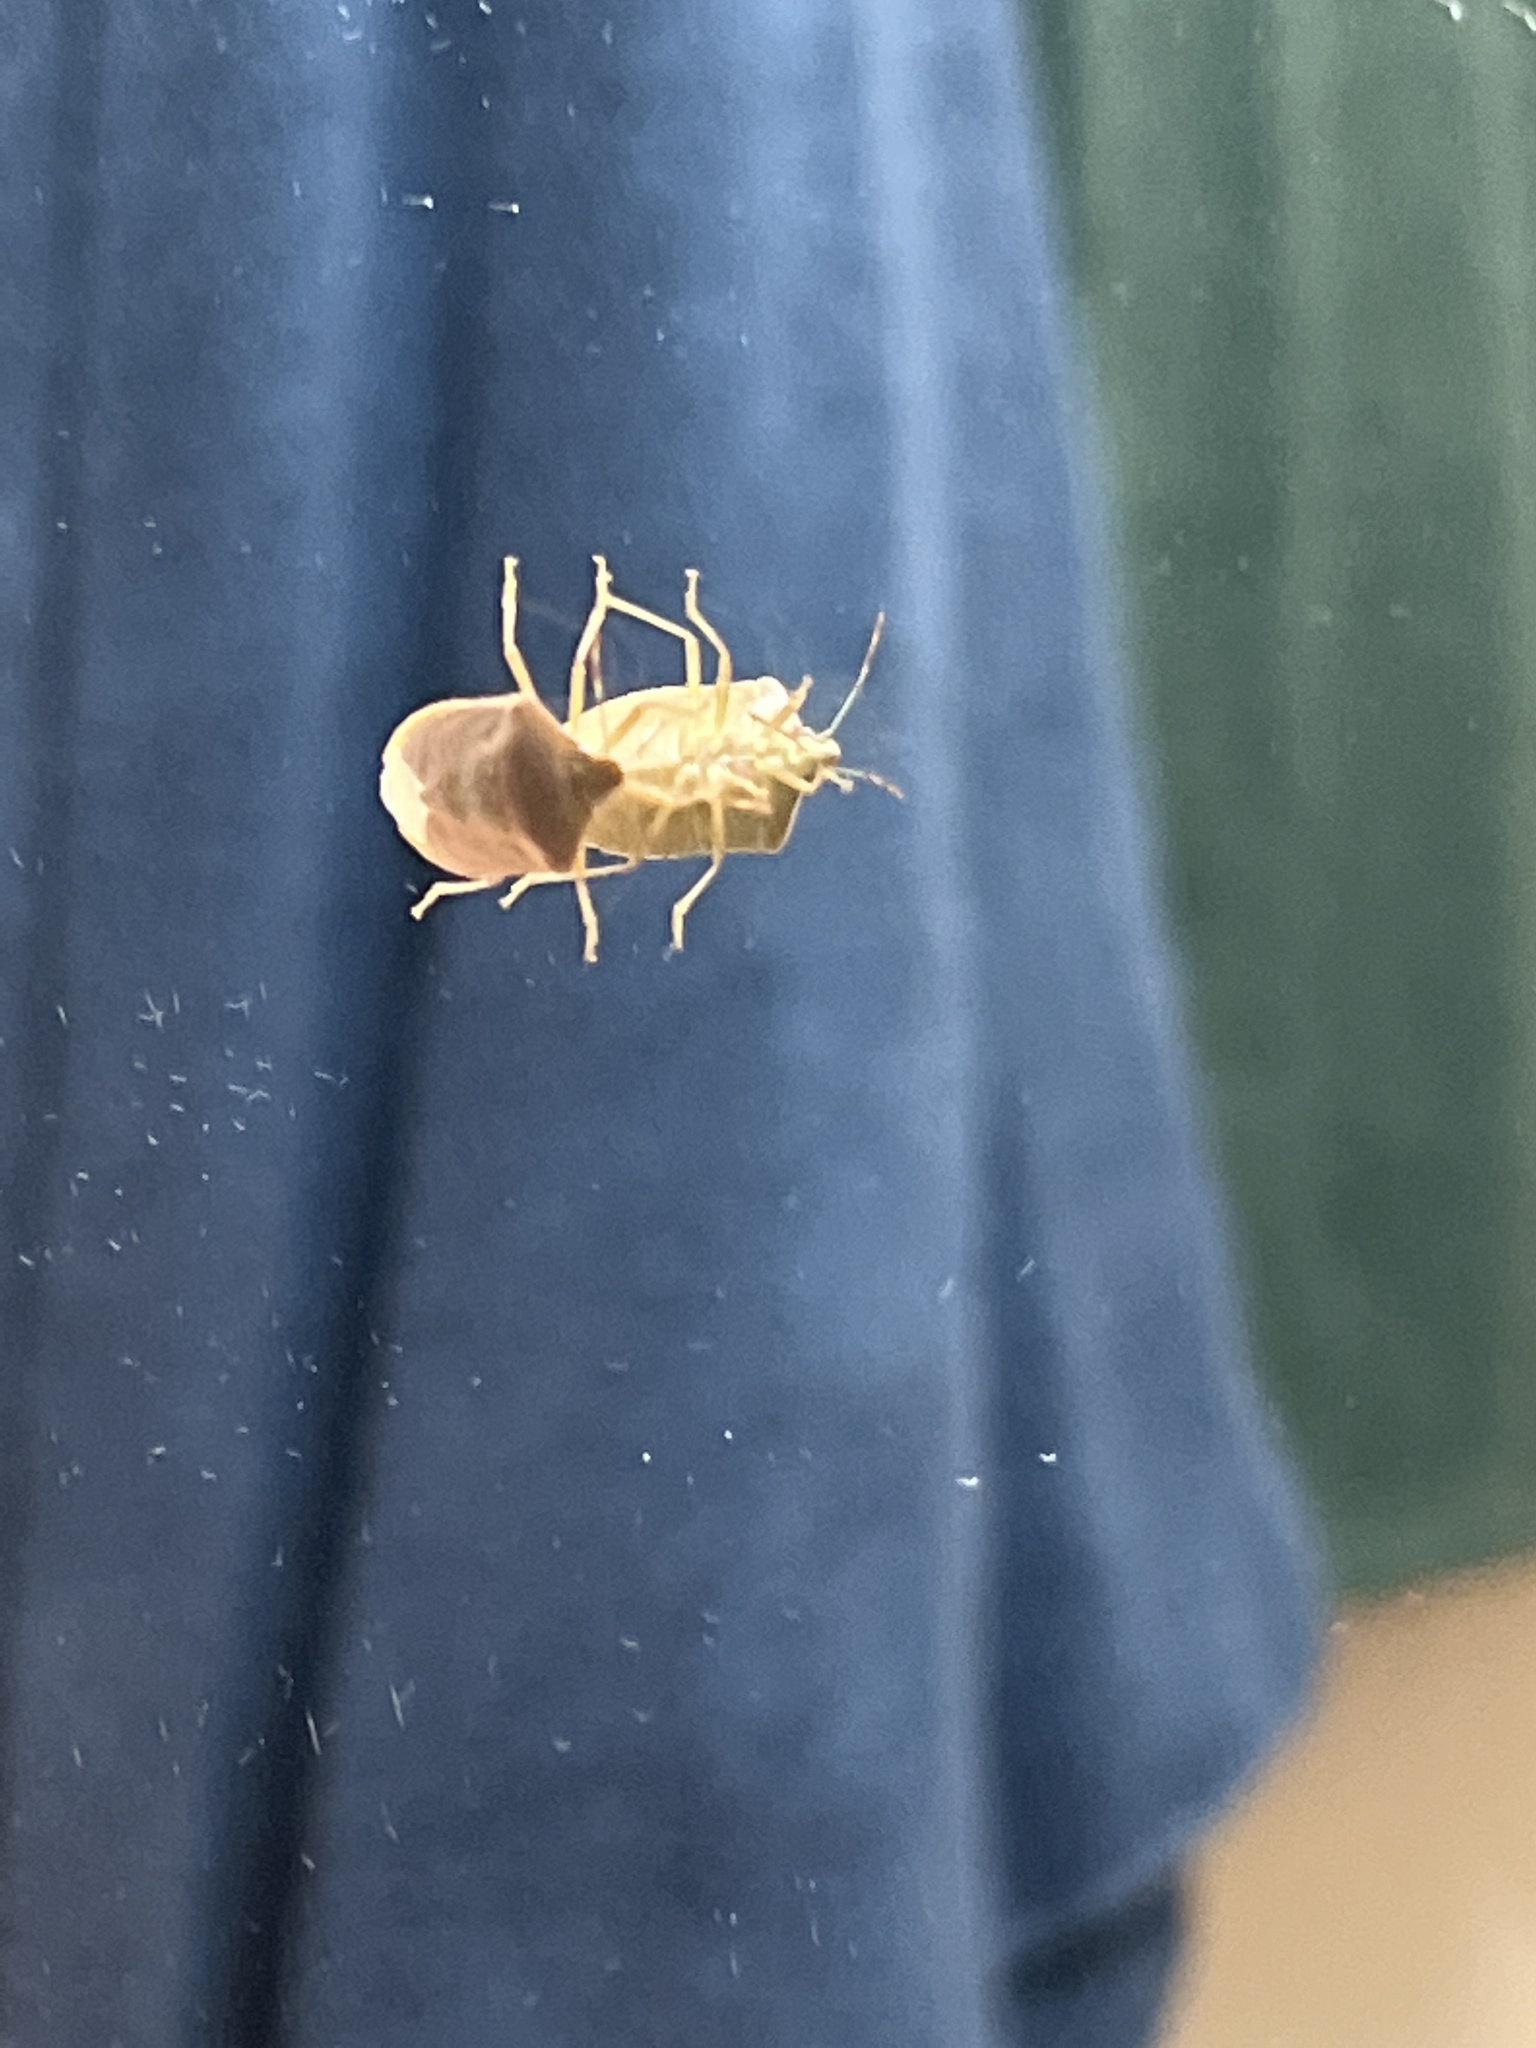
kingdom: Animalia
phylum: Arthropoda
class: Insecta
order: Hemiptera
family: Pentatomidae
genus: Halyomorpha
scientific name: Halyomorpha halys
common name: Brown marmorated stink bug
